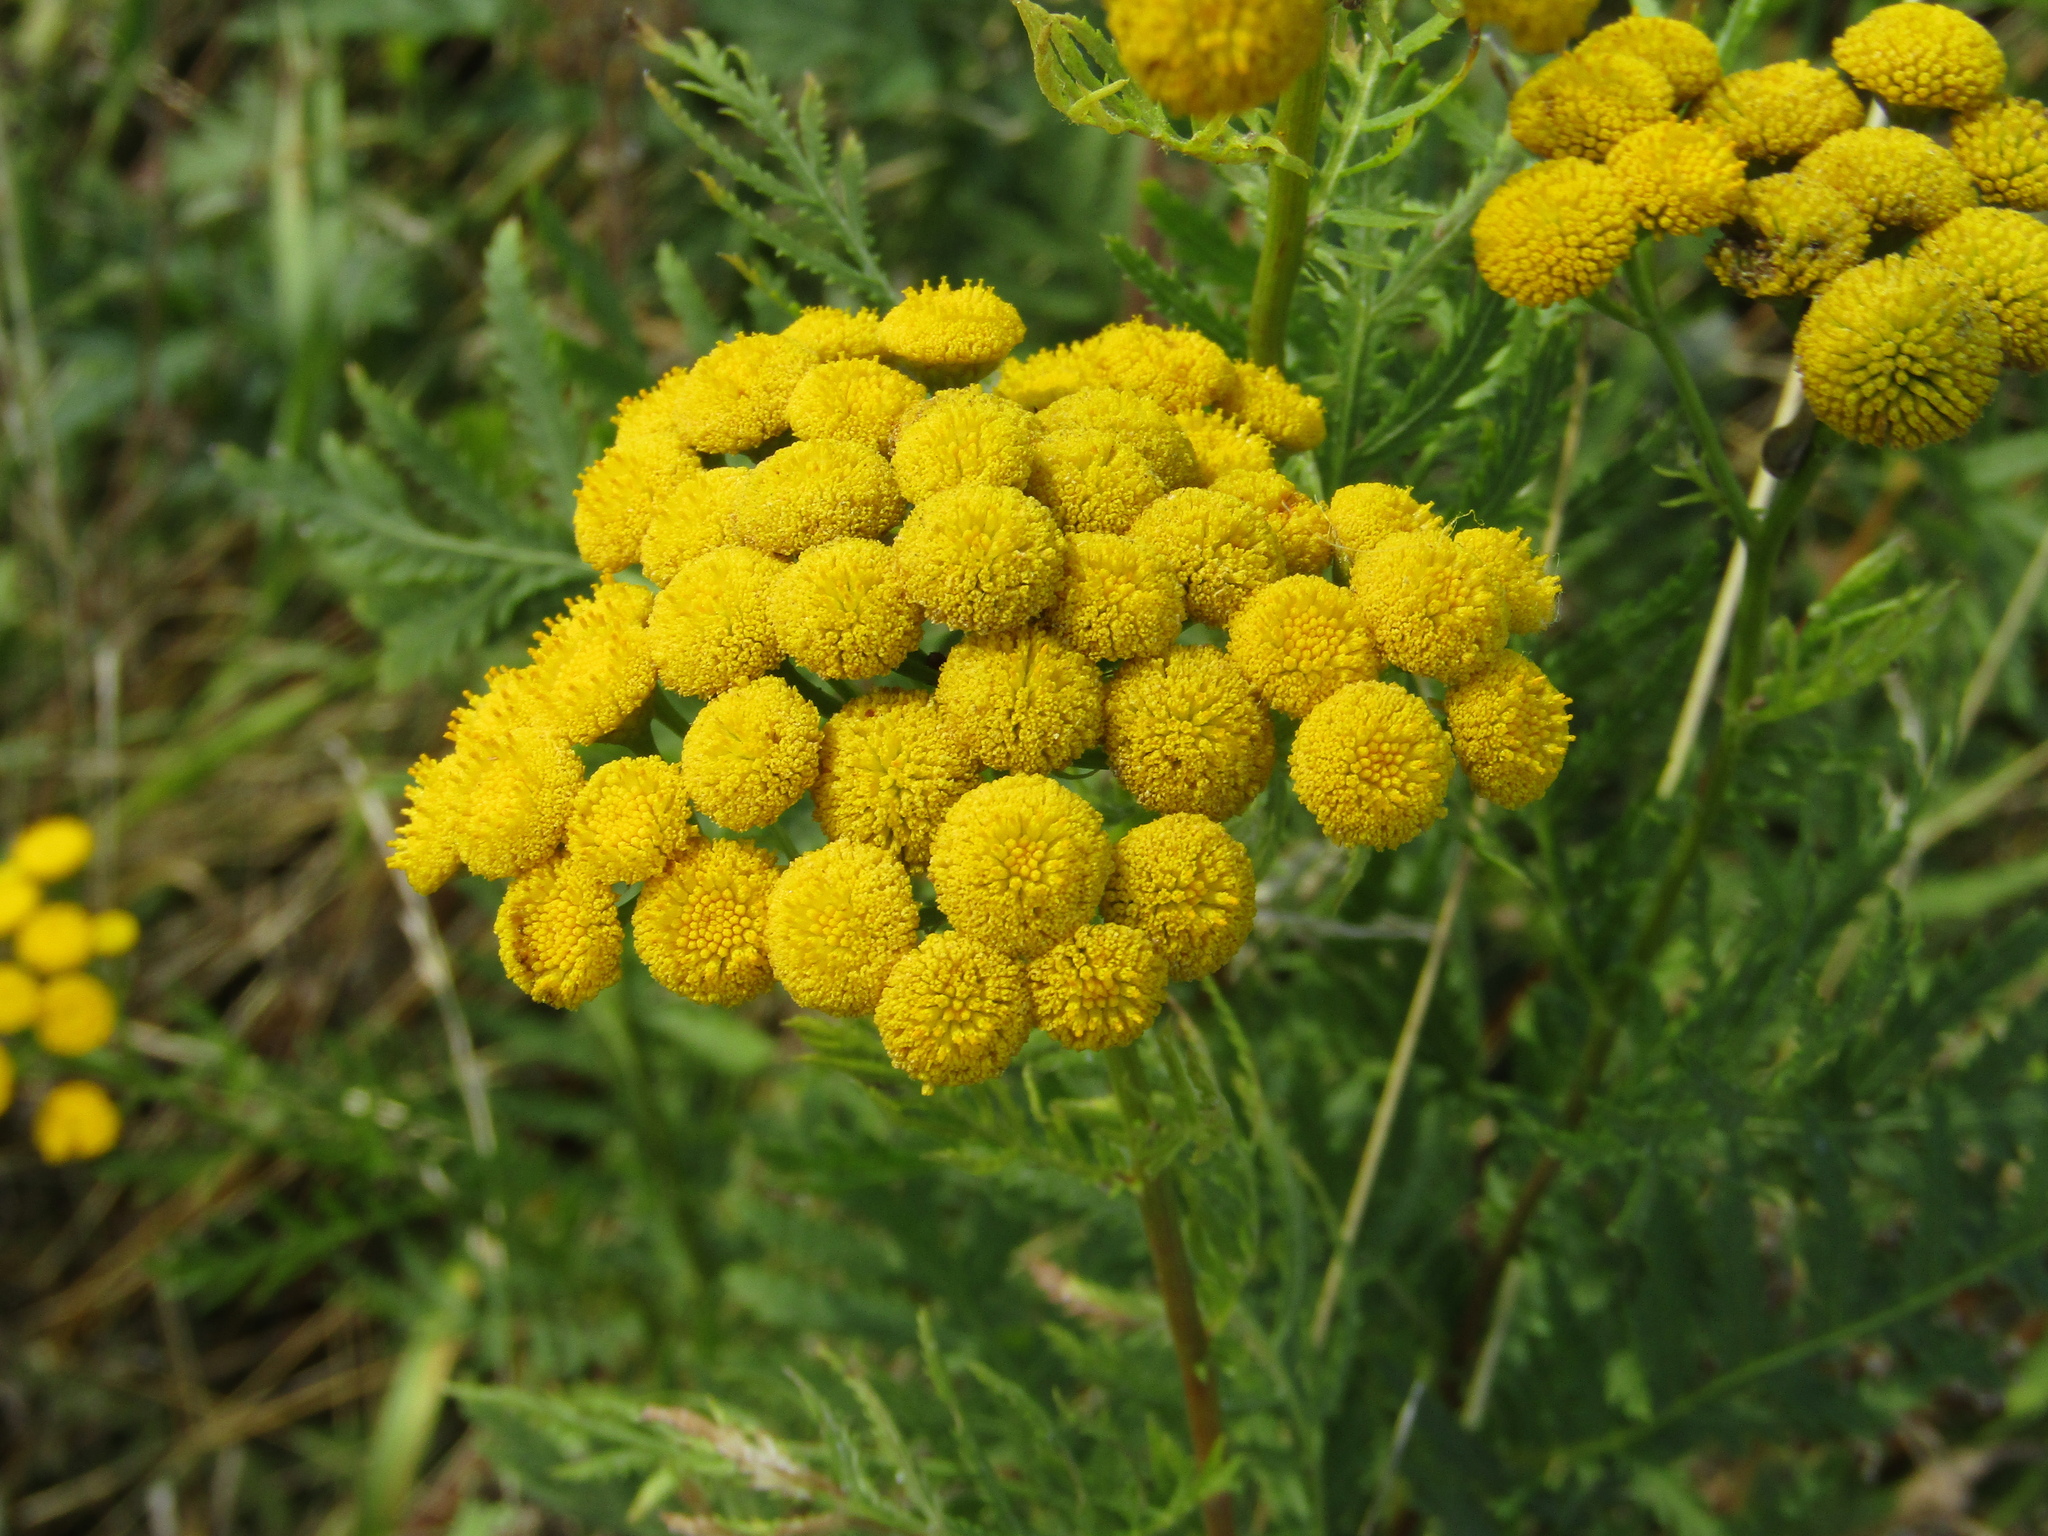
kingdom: Plantae
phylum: Tracheophyta
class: Magnoliopsida
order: Asterales
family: Asteraceae
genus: Tanacetum
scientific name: Tanacetum vulgare
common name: Common tansy
